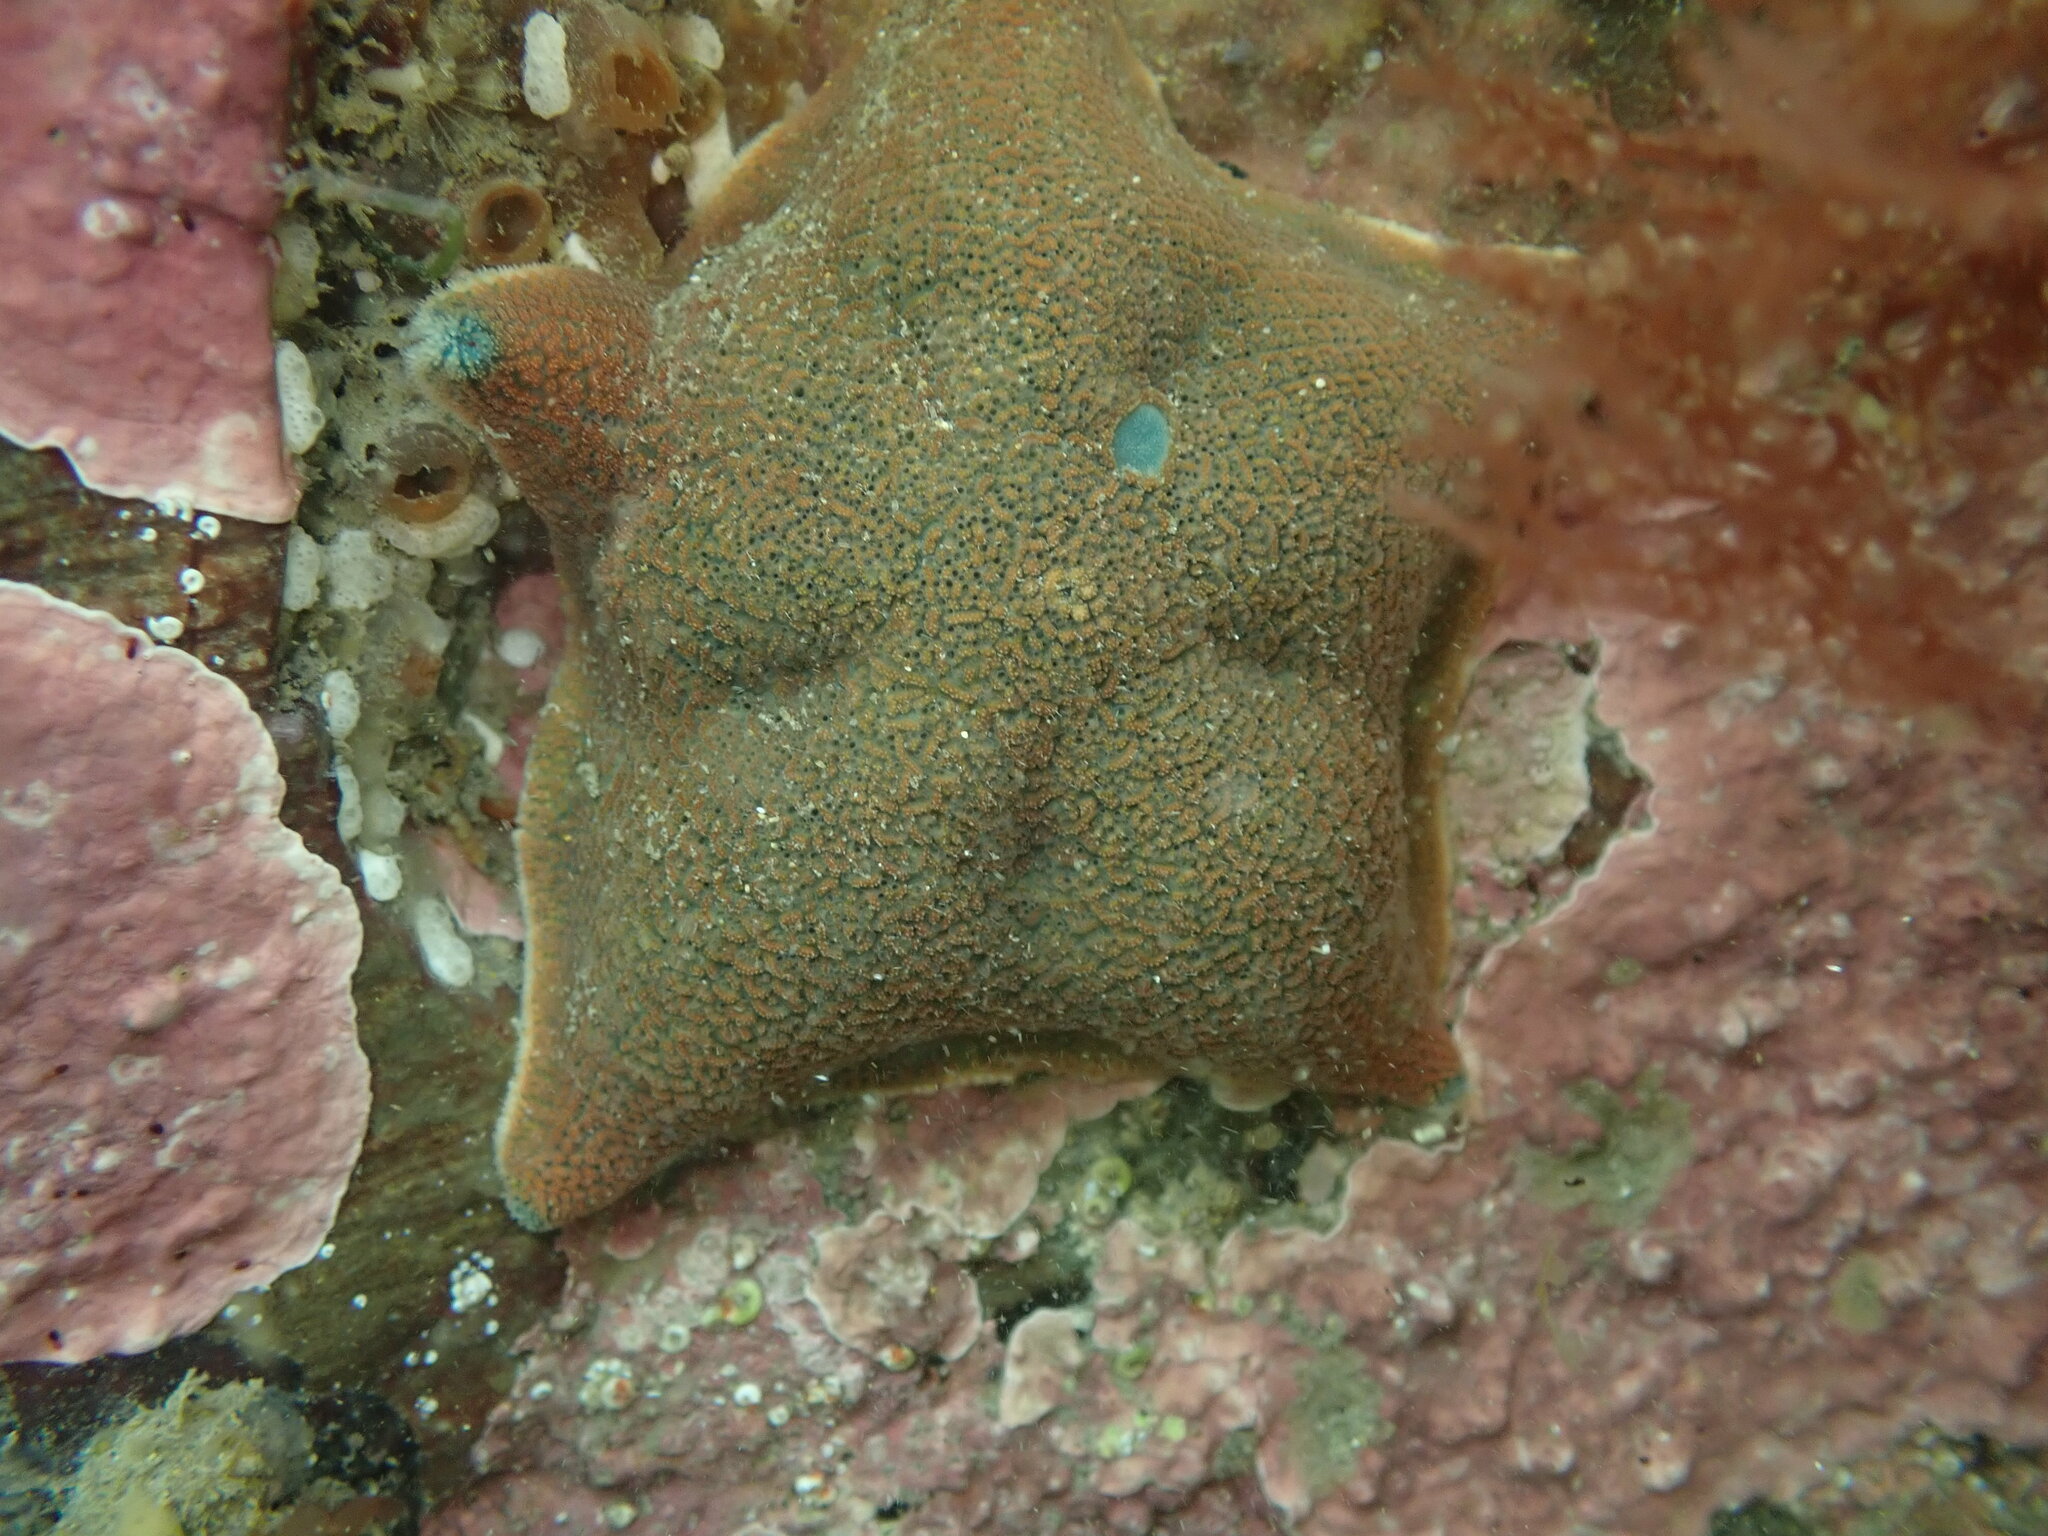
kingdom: Animalia
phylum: Echinodermata
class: Asteroidea
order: Valvatida
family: Asterinidae
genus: Patiriella
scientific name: Patiriella regularis
